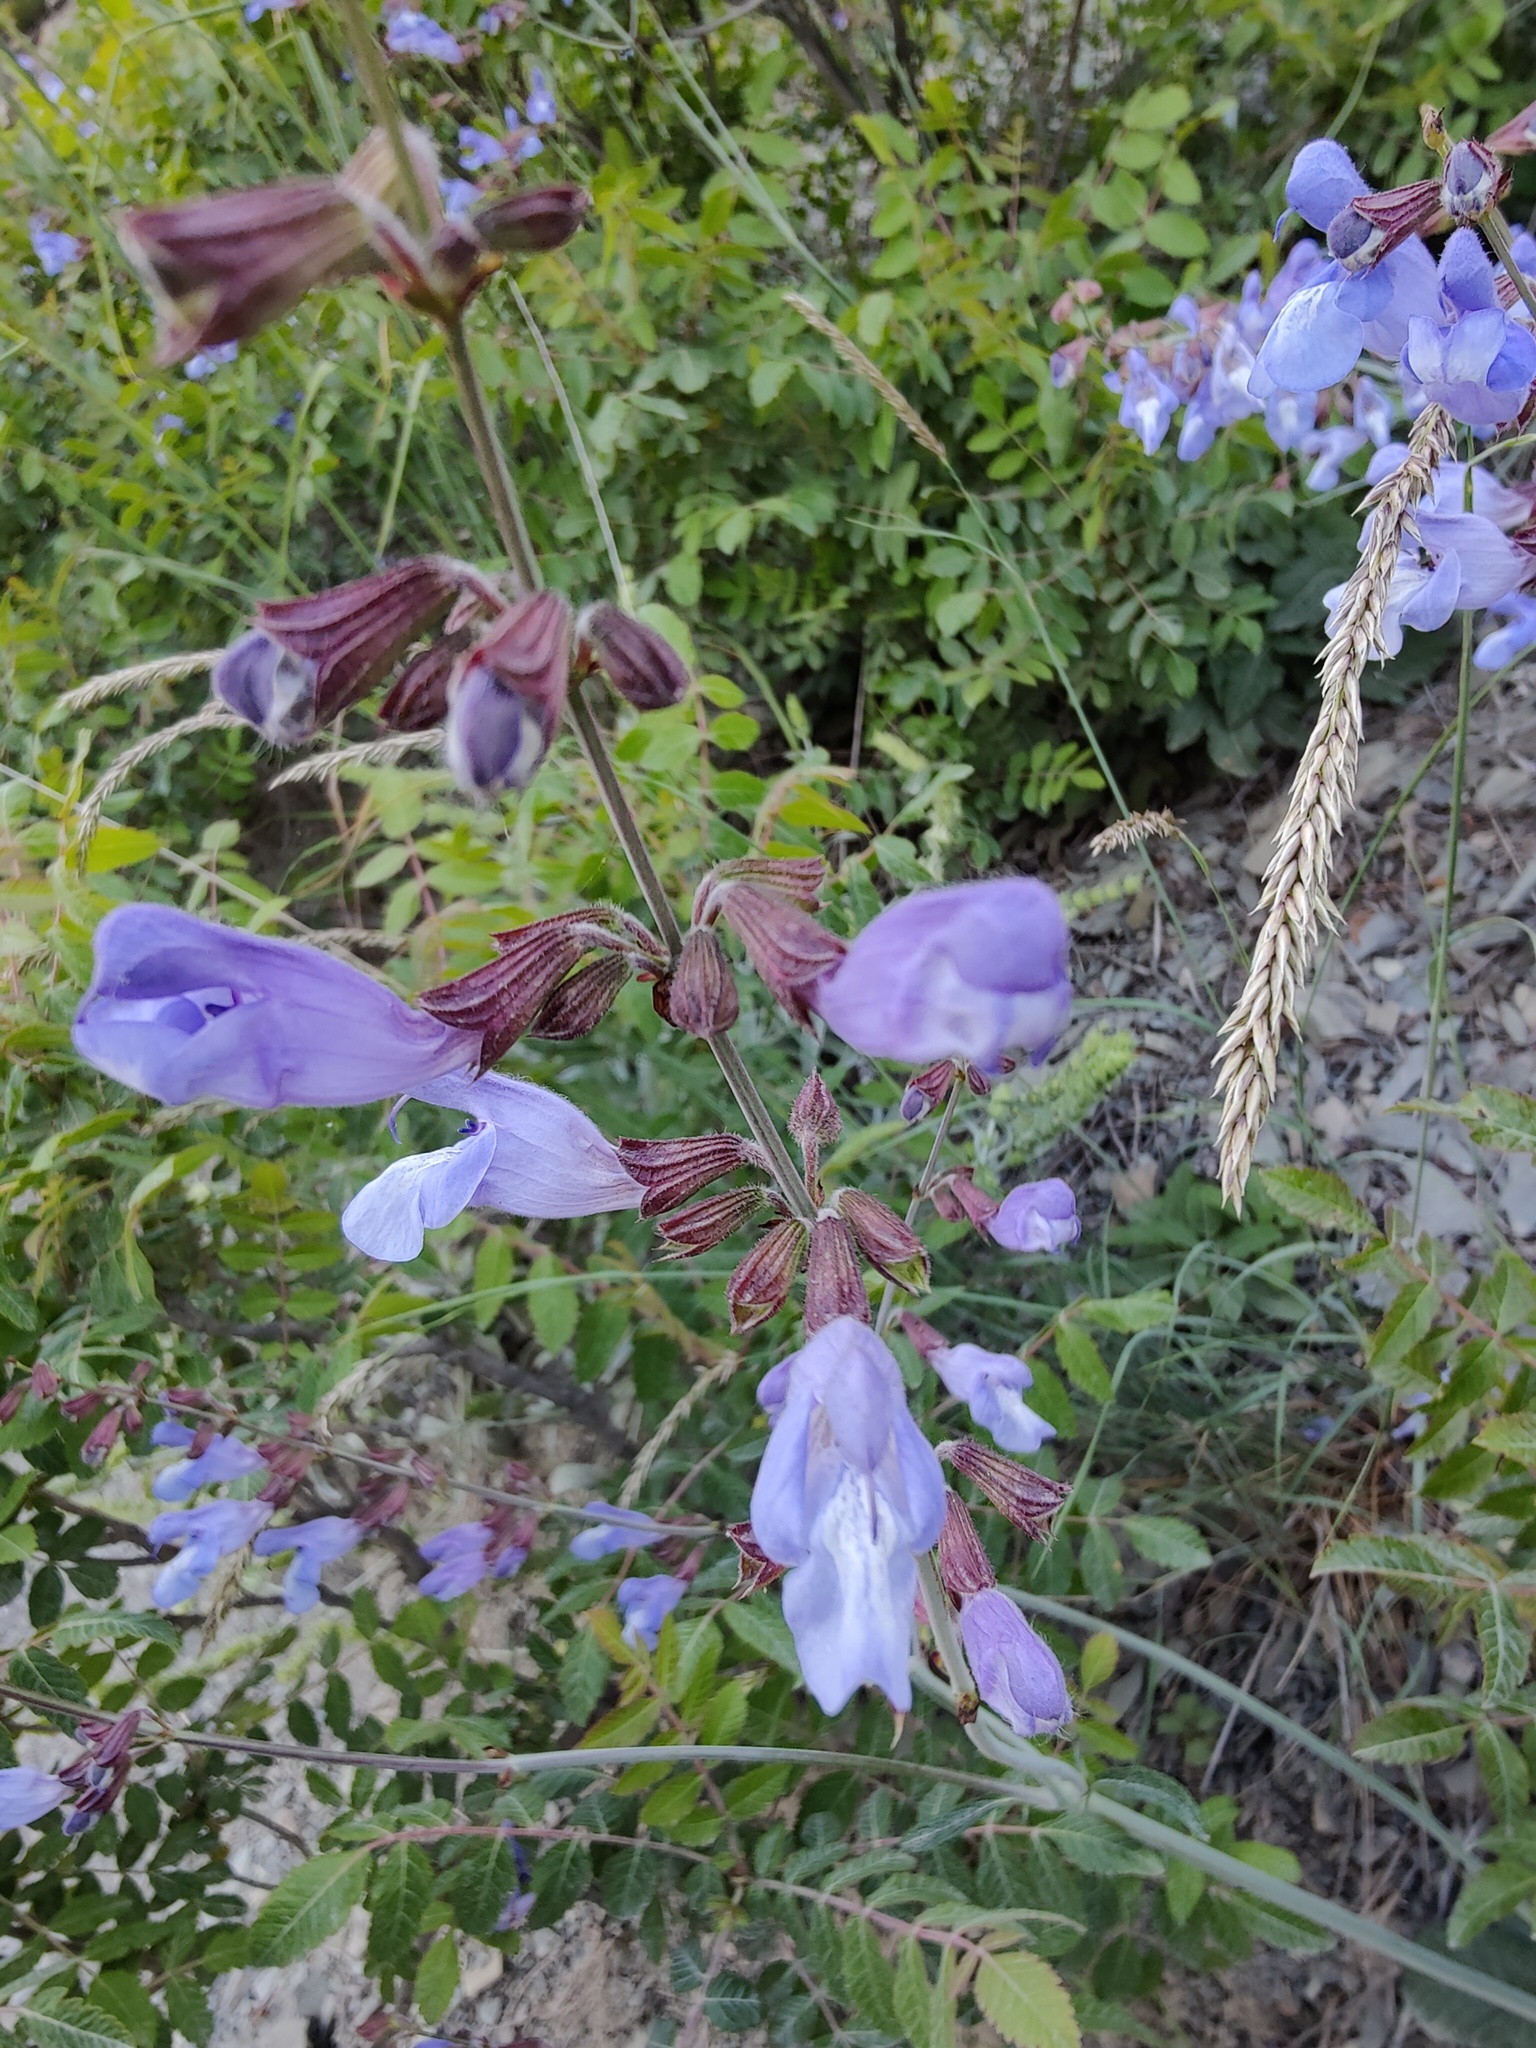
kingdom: Plantae
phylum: Tracheophyta
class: Magnoliopsida
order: Lamiales
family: Lamiaceae
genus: Salvia
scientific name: Salvia ringens
